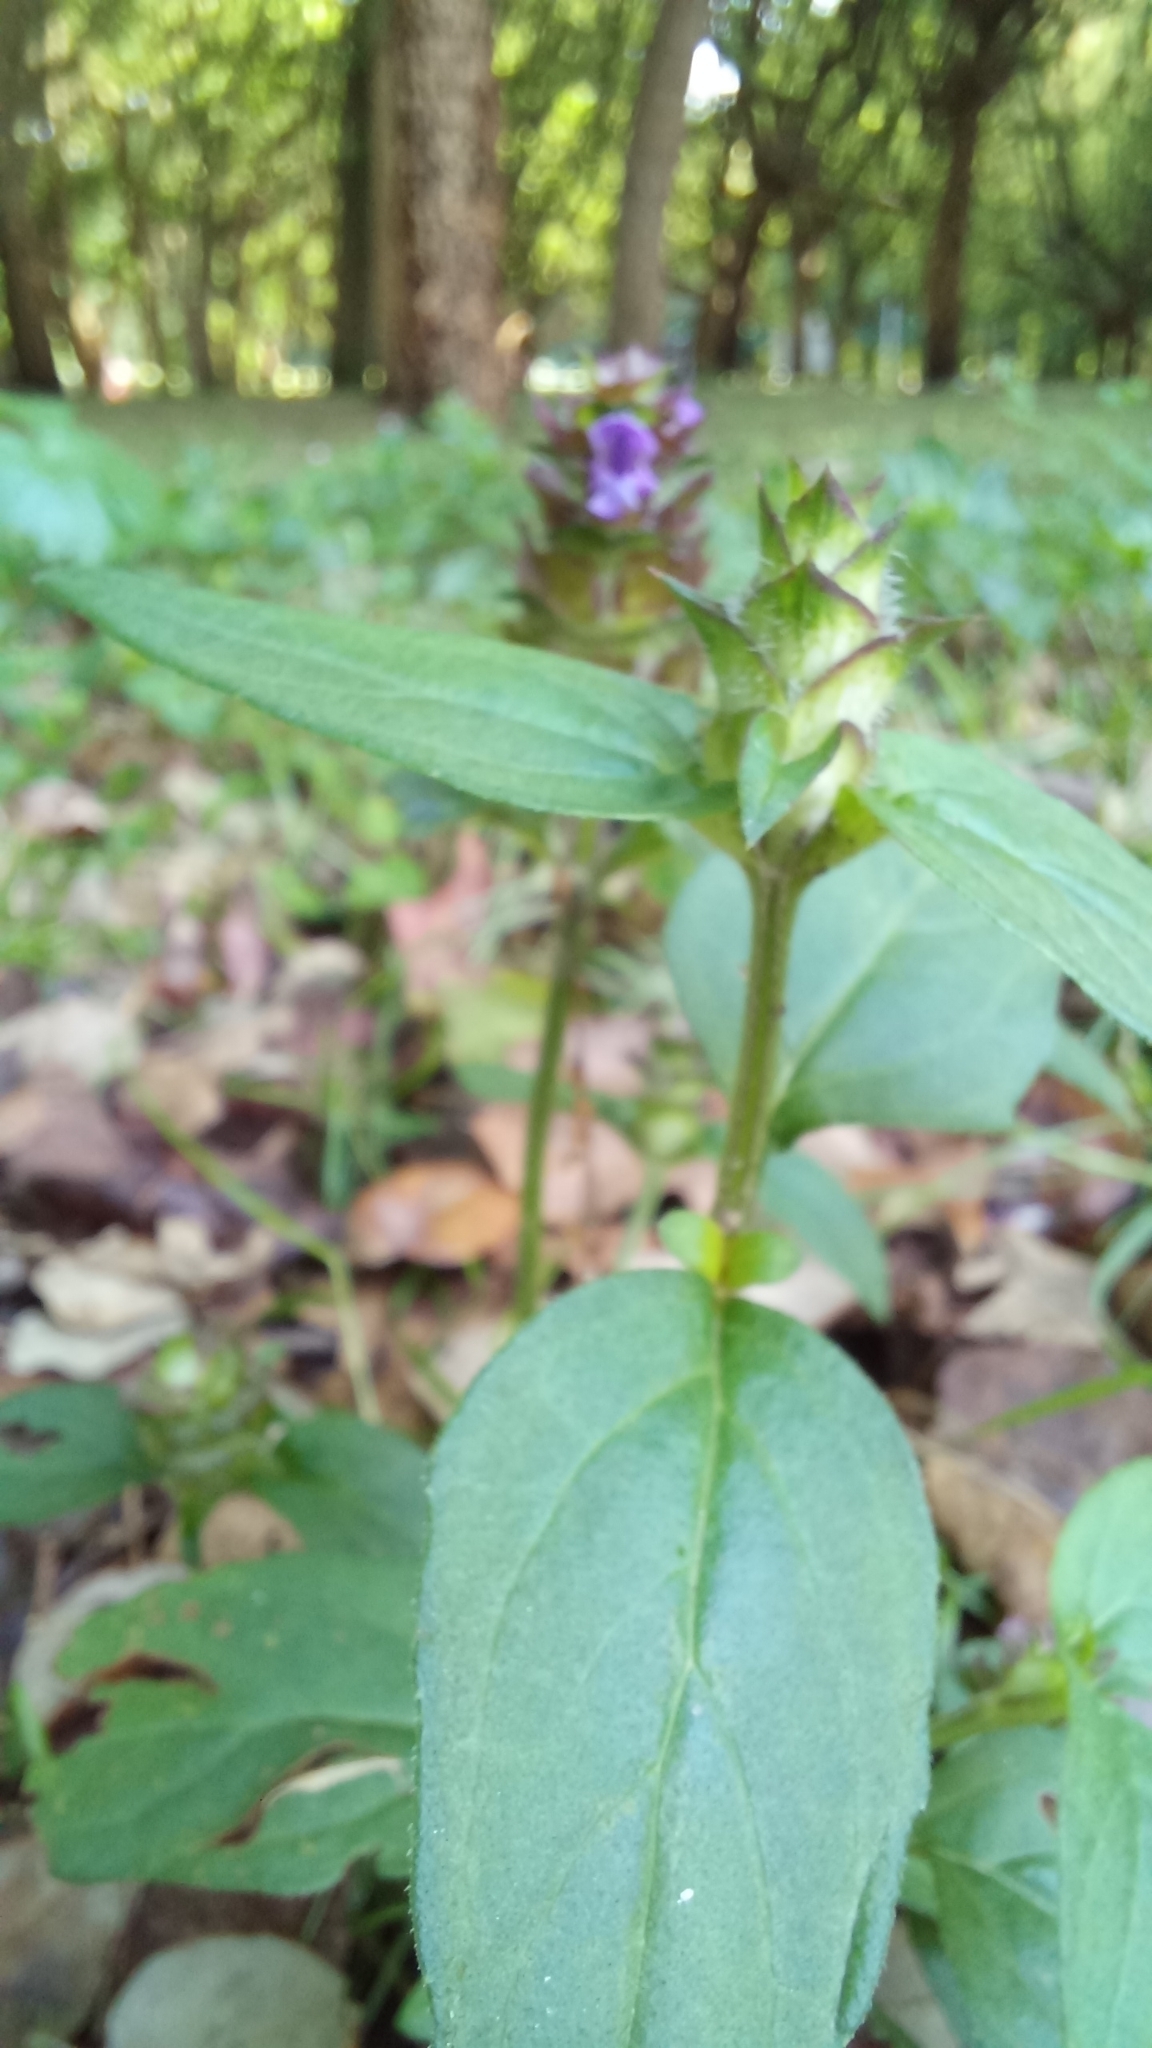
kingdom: Plantae
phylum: Tracheophyta
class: Magnoliopsida
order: Lamiales
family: Lamiaceae
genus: Prunella
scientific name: Prunella vulgaris
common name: Heal-all
